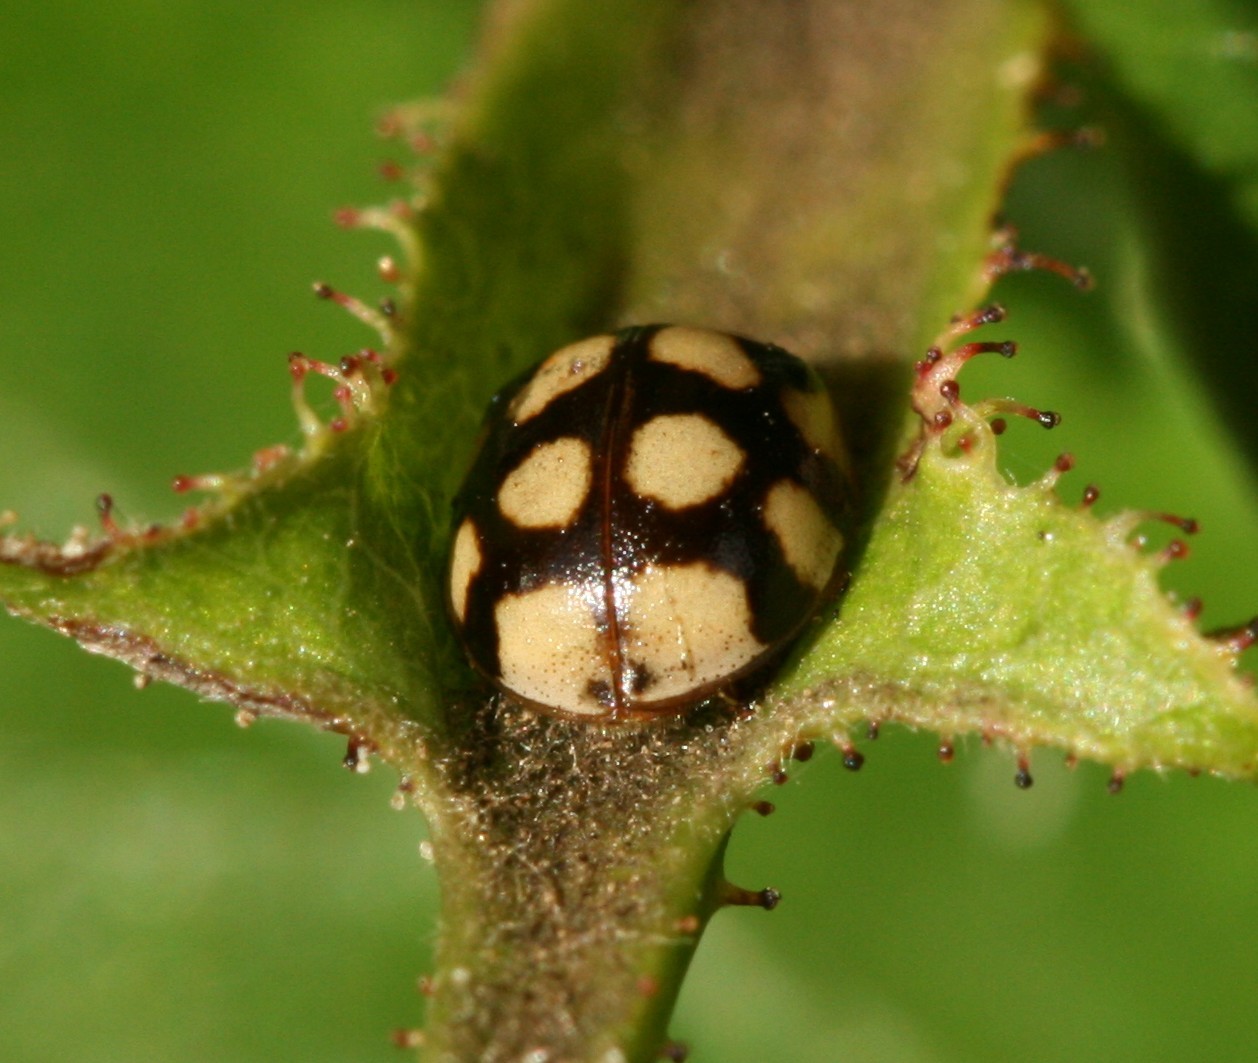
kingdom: Animalia
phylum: Arthropoda
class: Insecta
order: Coleoptera
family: Coccinellidae
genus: Adalia
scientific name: Adalia decempunctata
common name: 10-spot ladybird
